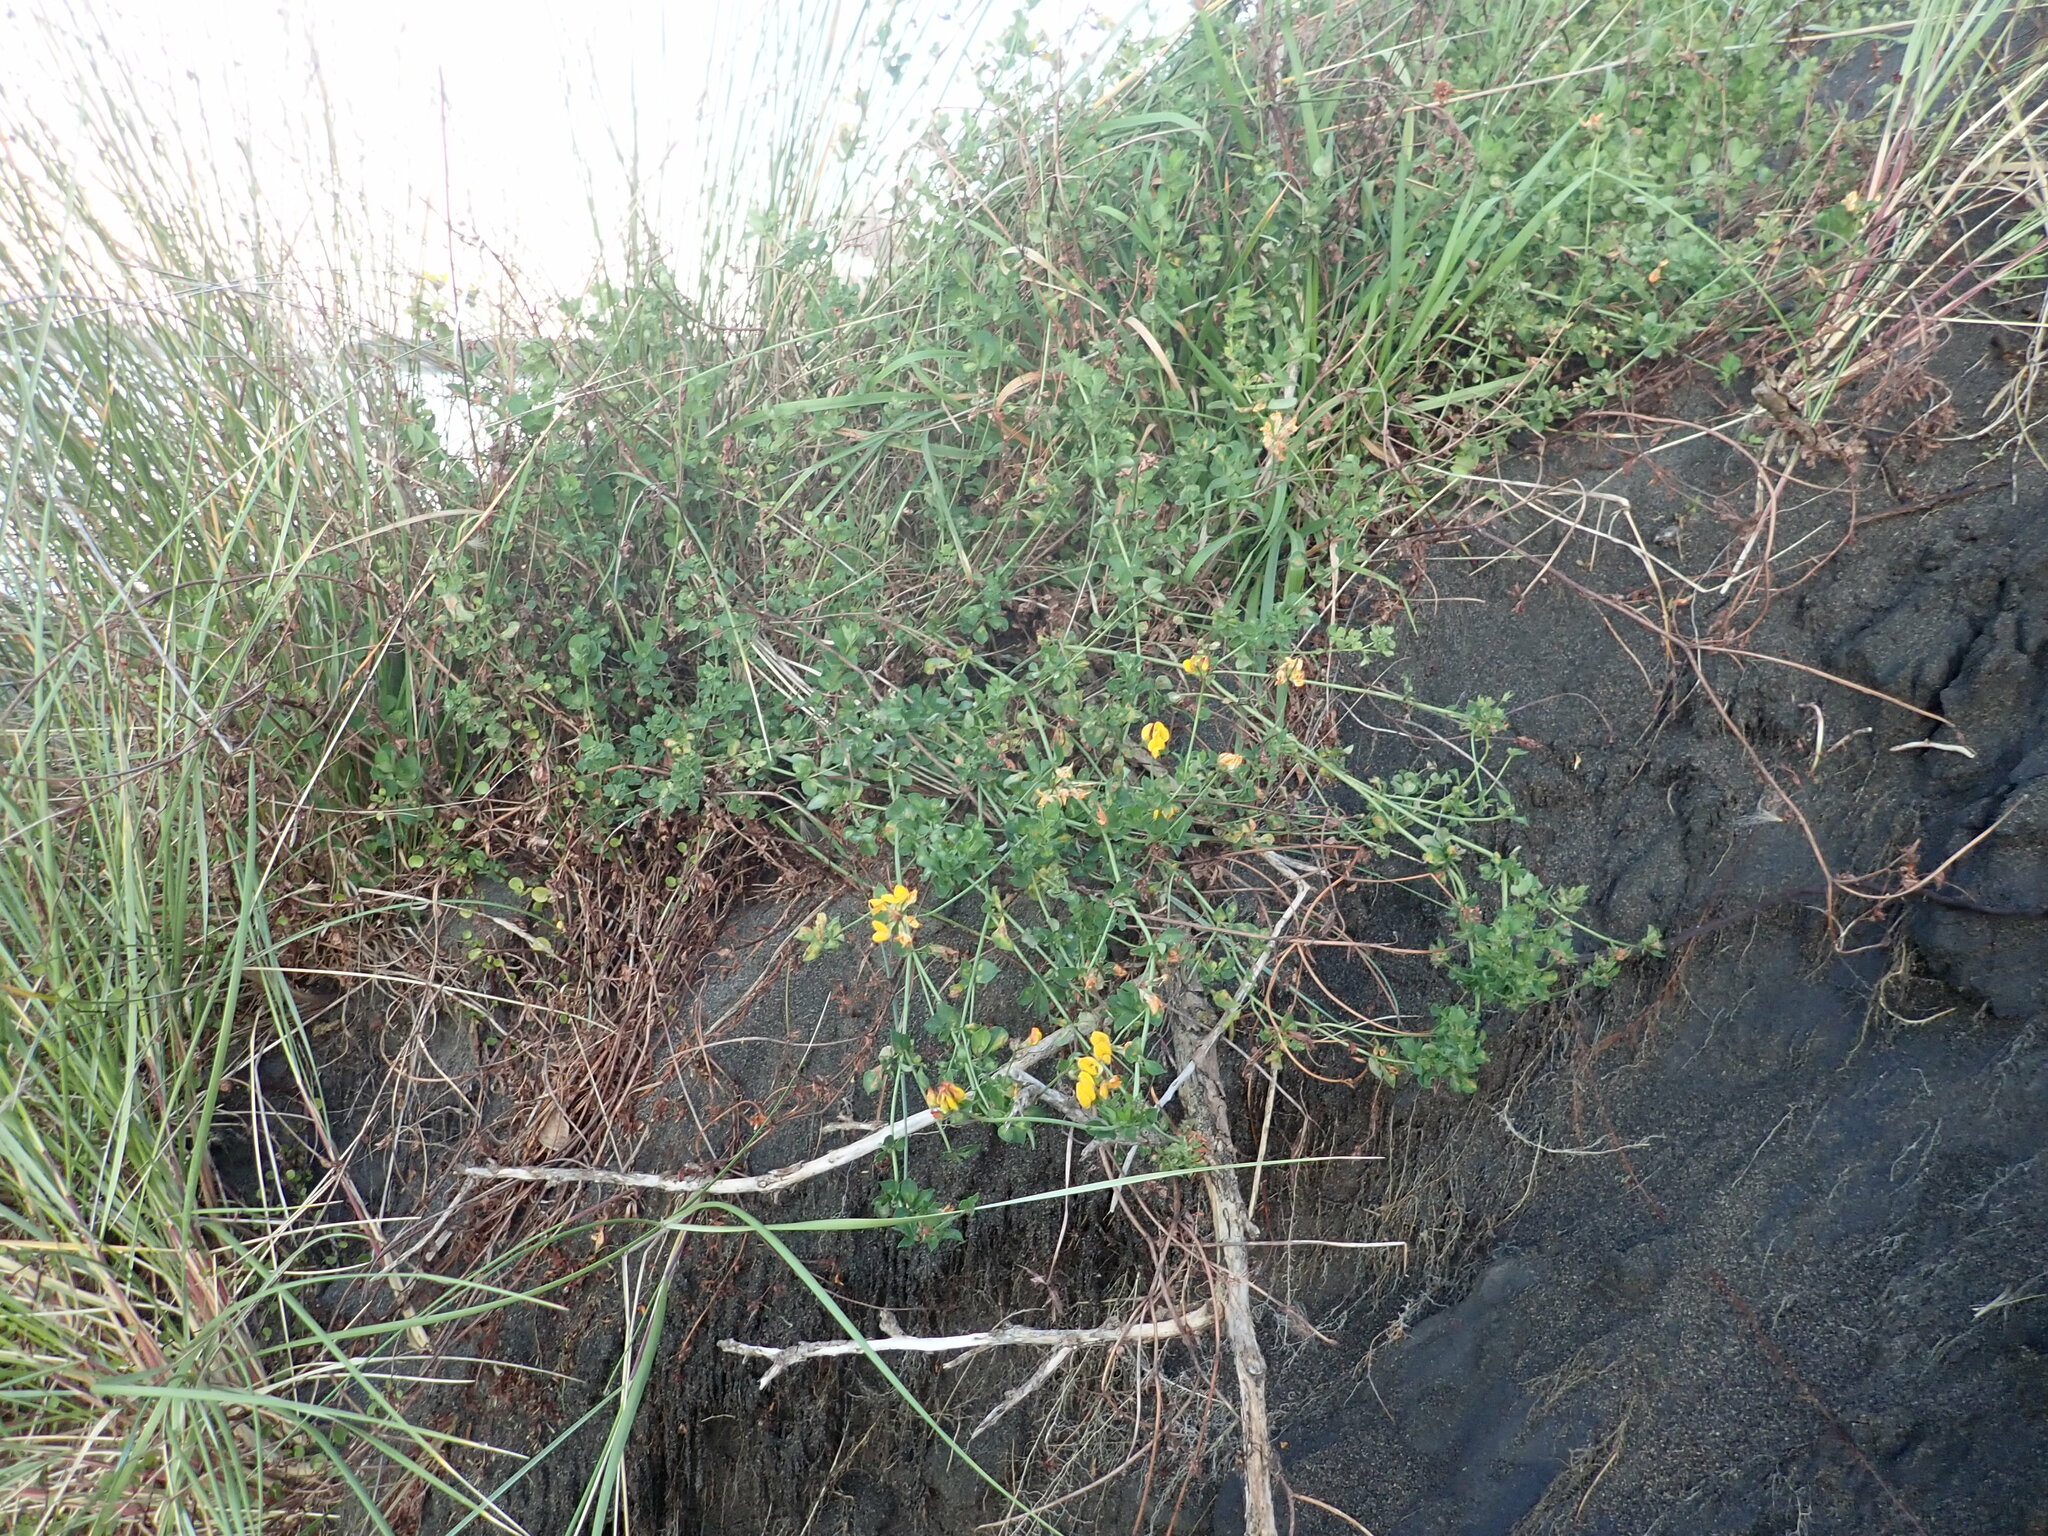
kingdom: Plantae
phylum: Tracheophyta
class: Magnoliopsida
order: Fabales
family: Fabaceae
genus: Lotus
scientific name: Lotus pedunculatus
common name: Greater birdsfoot-trefoil
